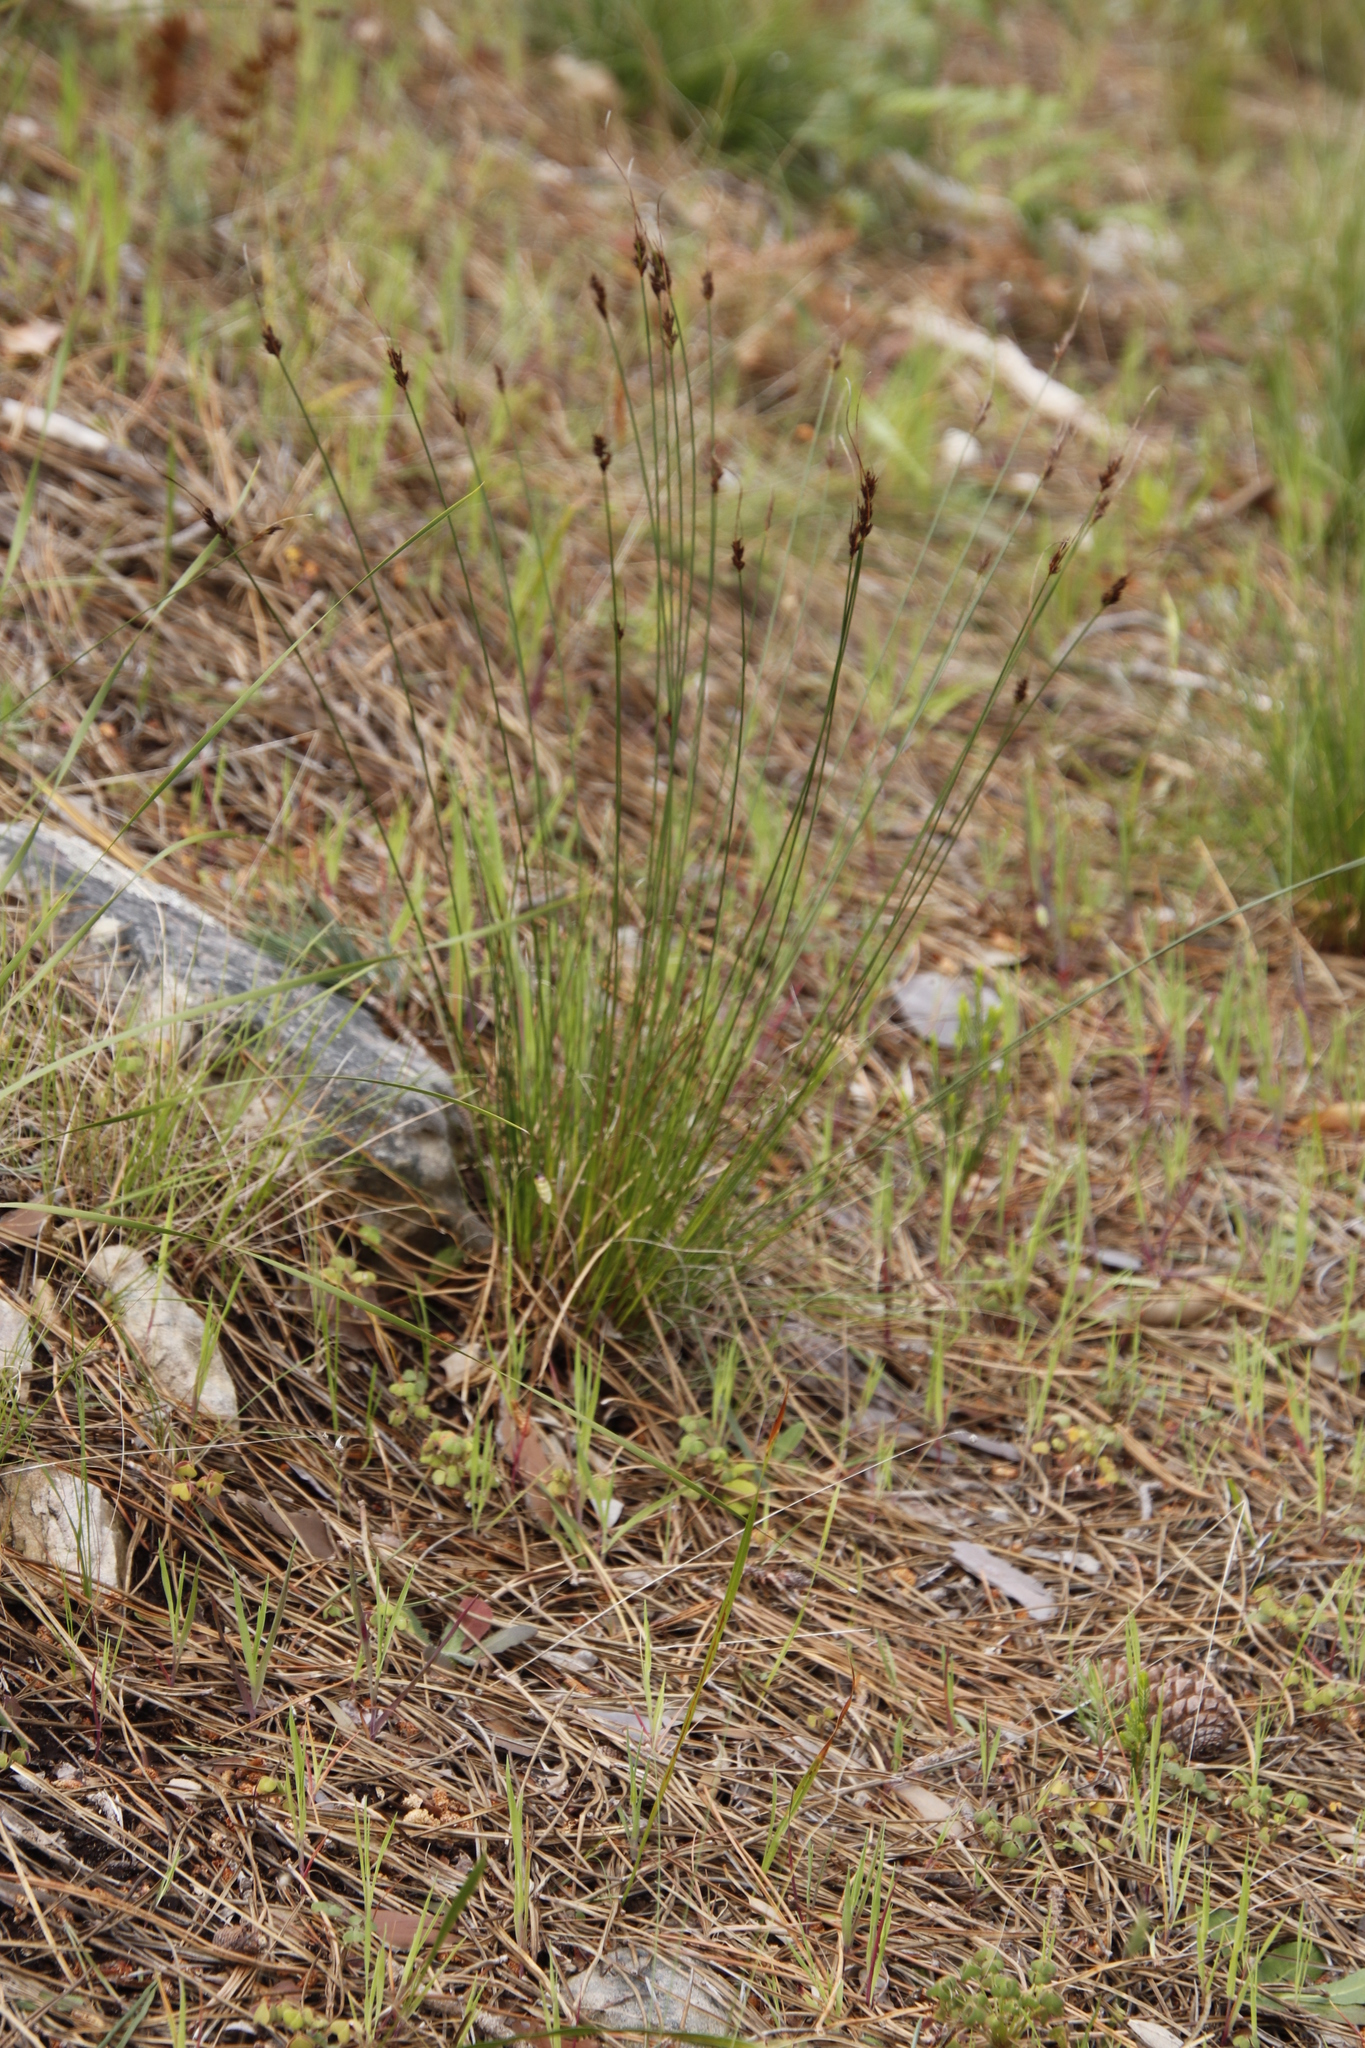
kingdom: Plantae
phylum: Tracheophyta
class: Liliopsida
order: Poales
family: Cyperaceae
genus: Schoenus
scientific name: Schoenus cuspidatus
